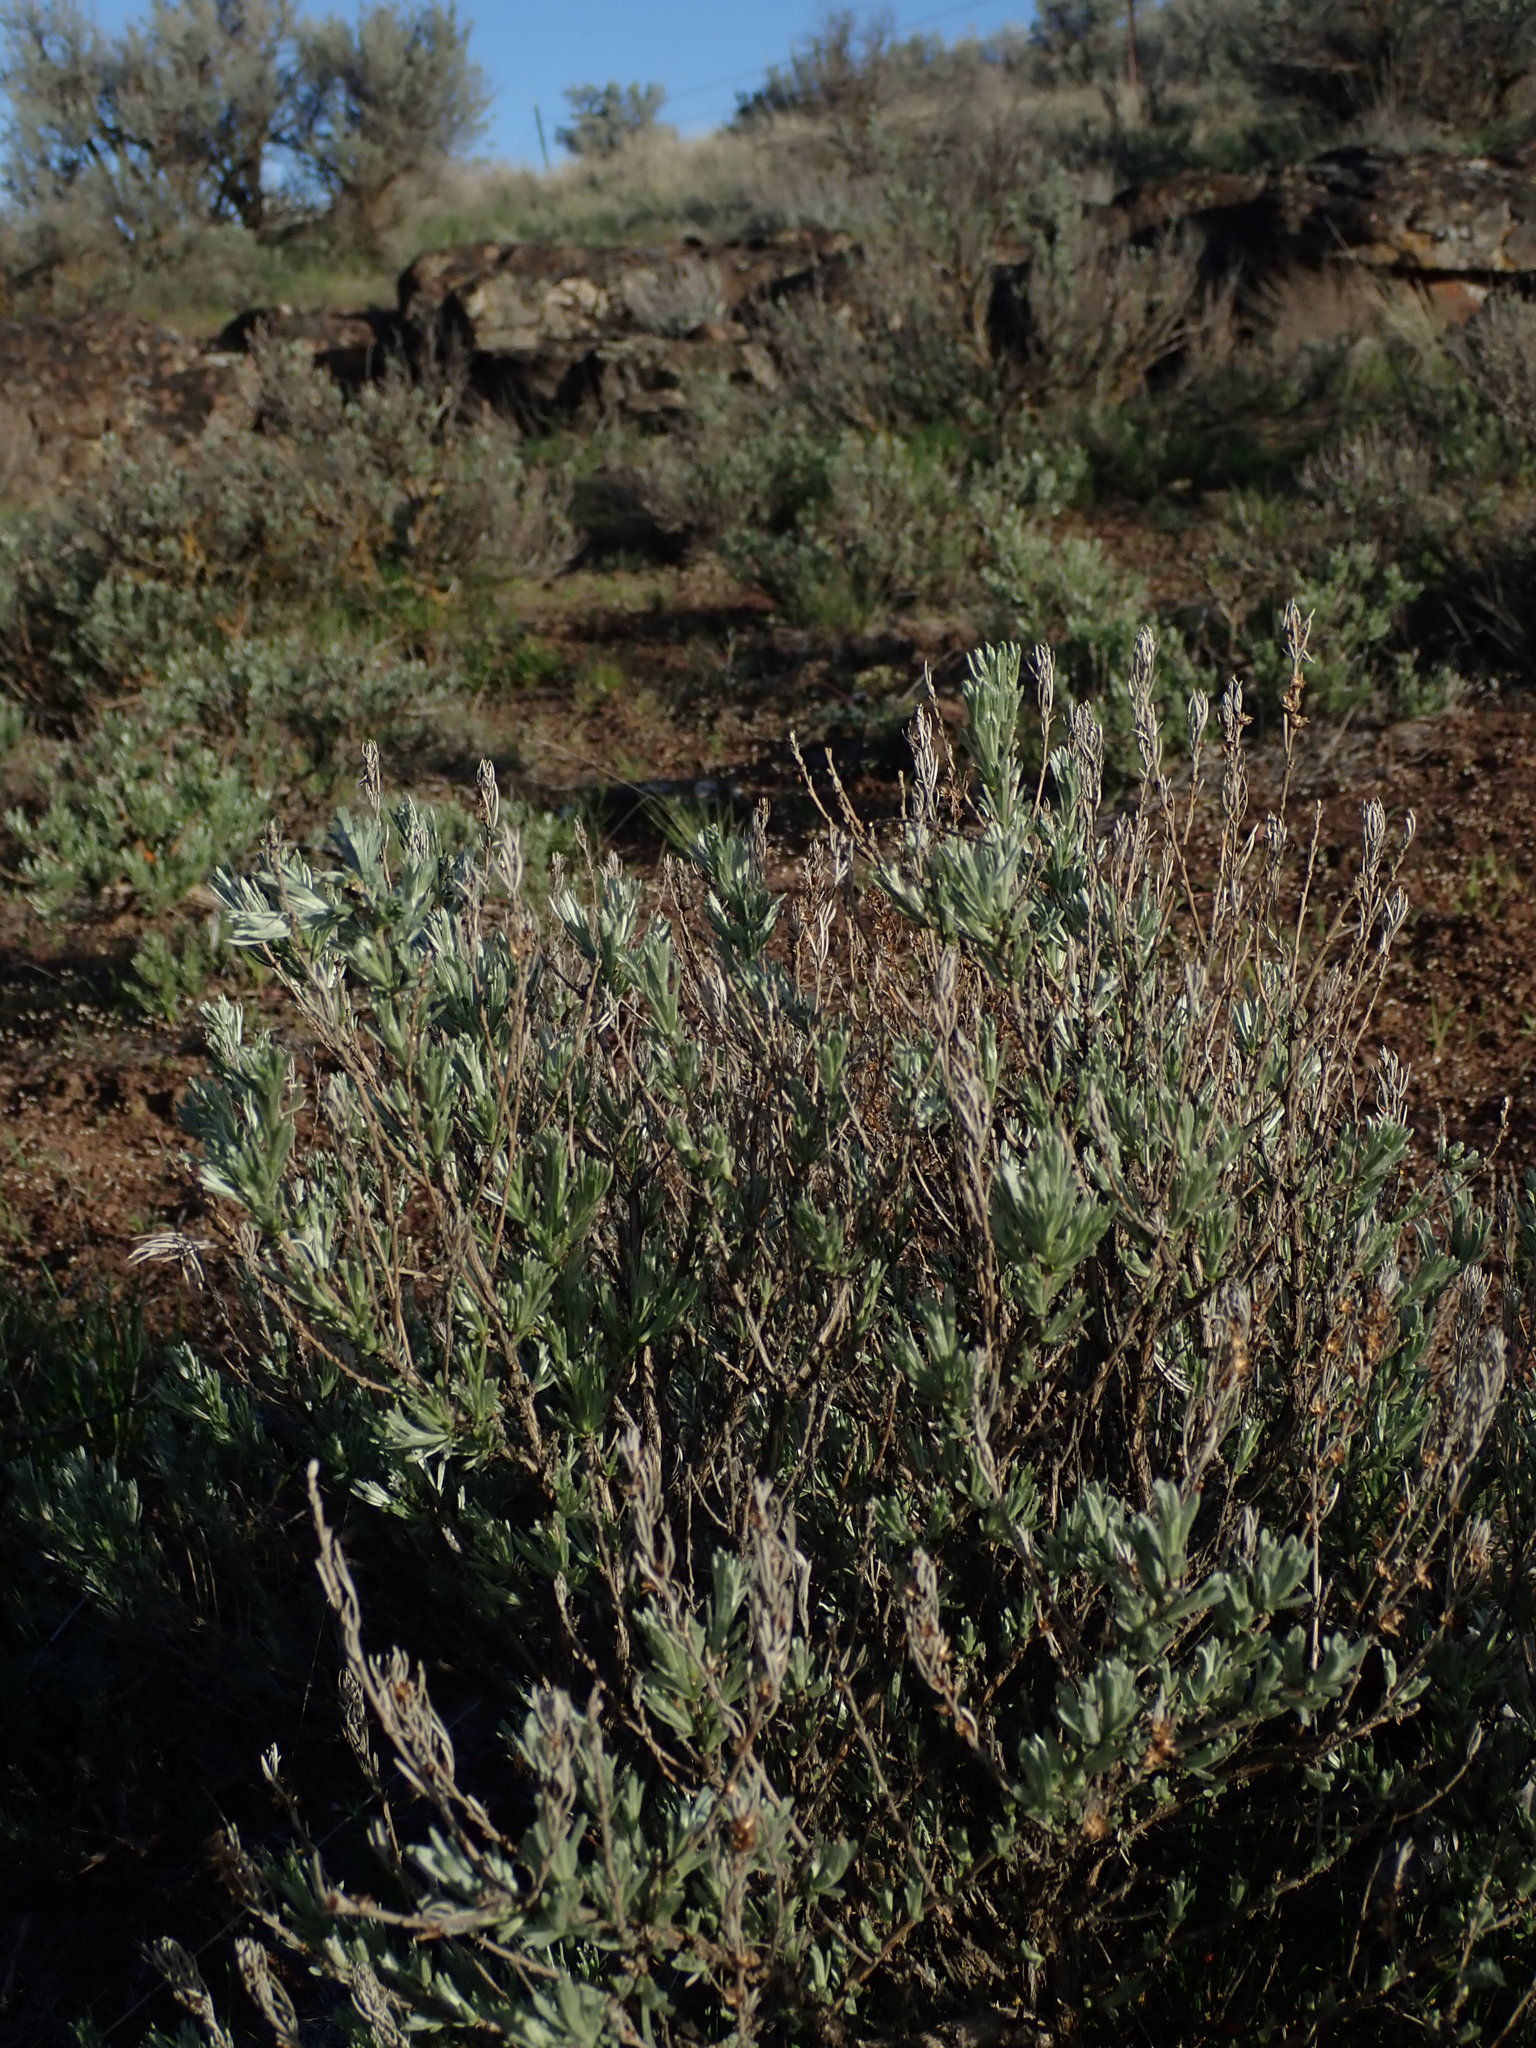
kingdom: Plantae
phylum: Tracheophyta
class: Magnoliopsida
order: Asterales
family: Asteraceae
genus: Artemisia
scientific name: Artemisia rigida
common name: Scabland sagebrush
